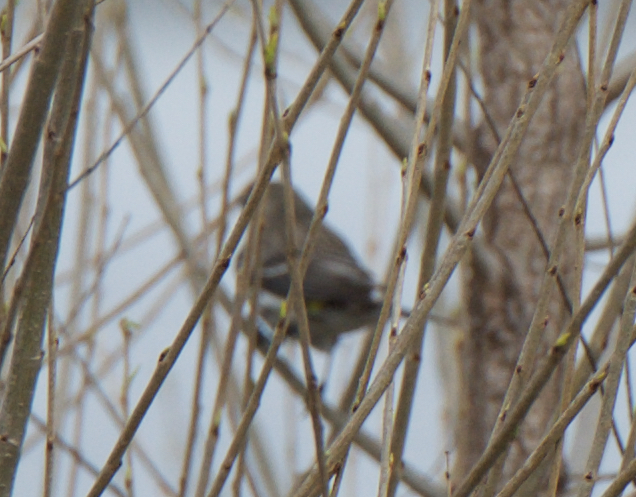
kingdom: Animalia
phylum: Chordata
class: Aves
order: Passeriformes
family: Parulidae
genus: Setophaga
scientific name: Setophaga coronata
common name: Myrtle warbler
